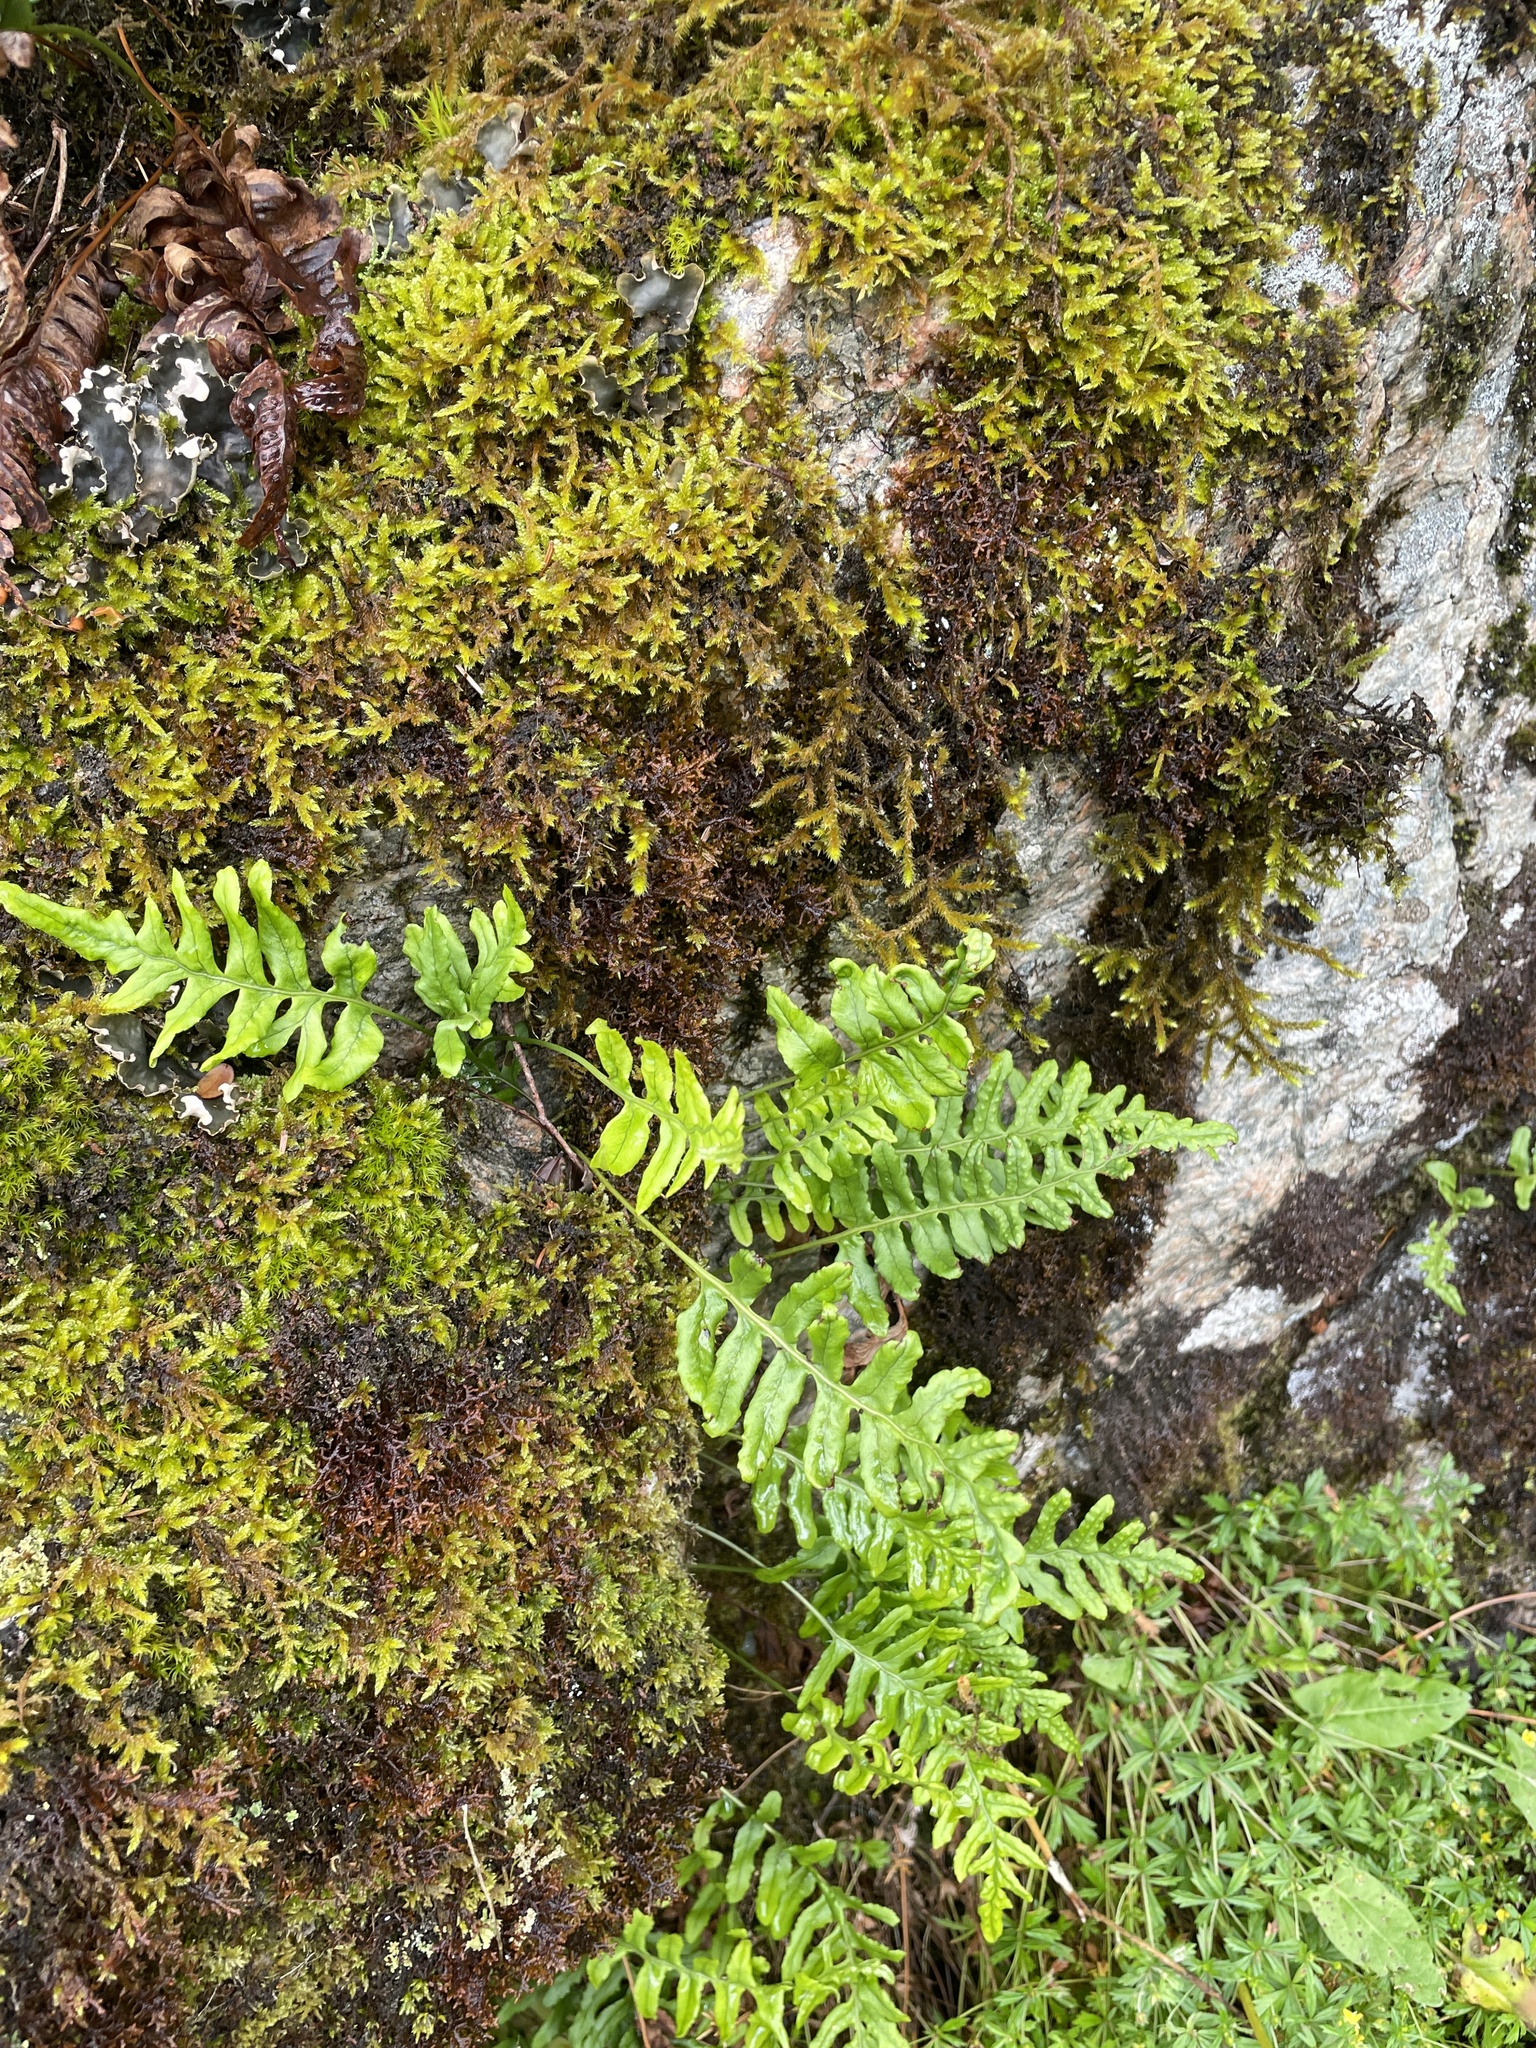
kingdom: Plantae
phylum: Tracheophyta
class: Polypodiopsida
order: Polypodiales
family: Polypodiaceae
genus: Polypodium
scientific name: Polypodium vulgare
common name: Common polypody
